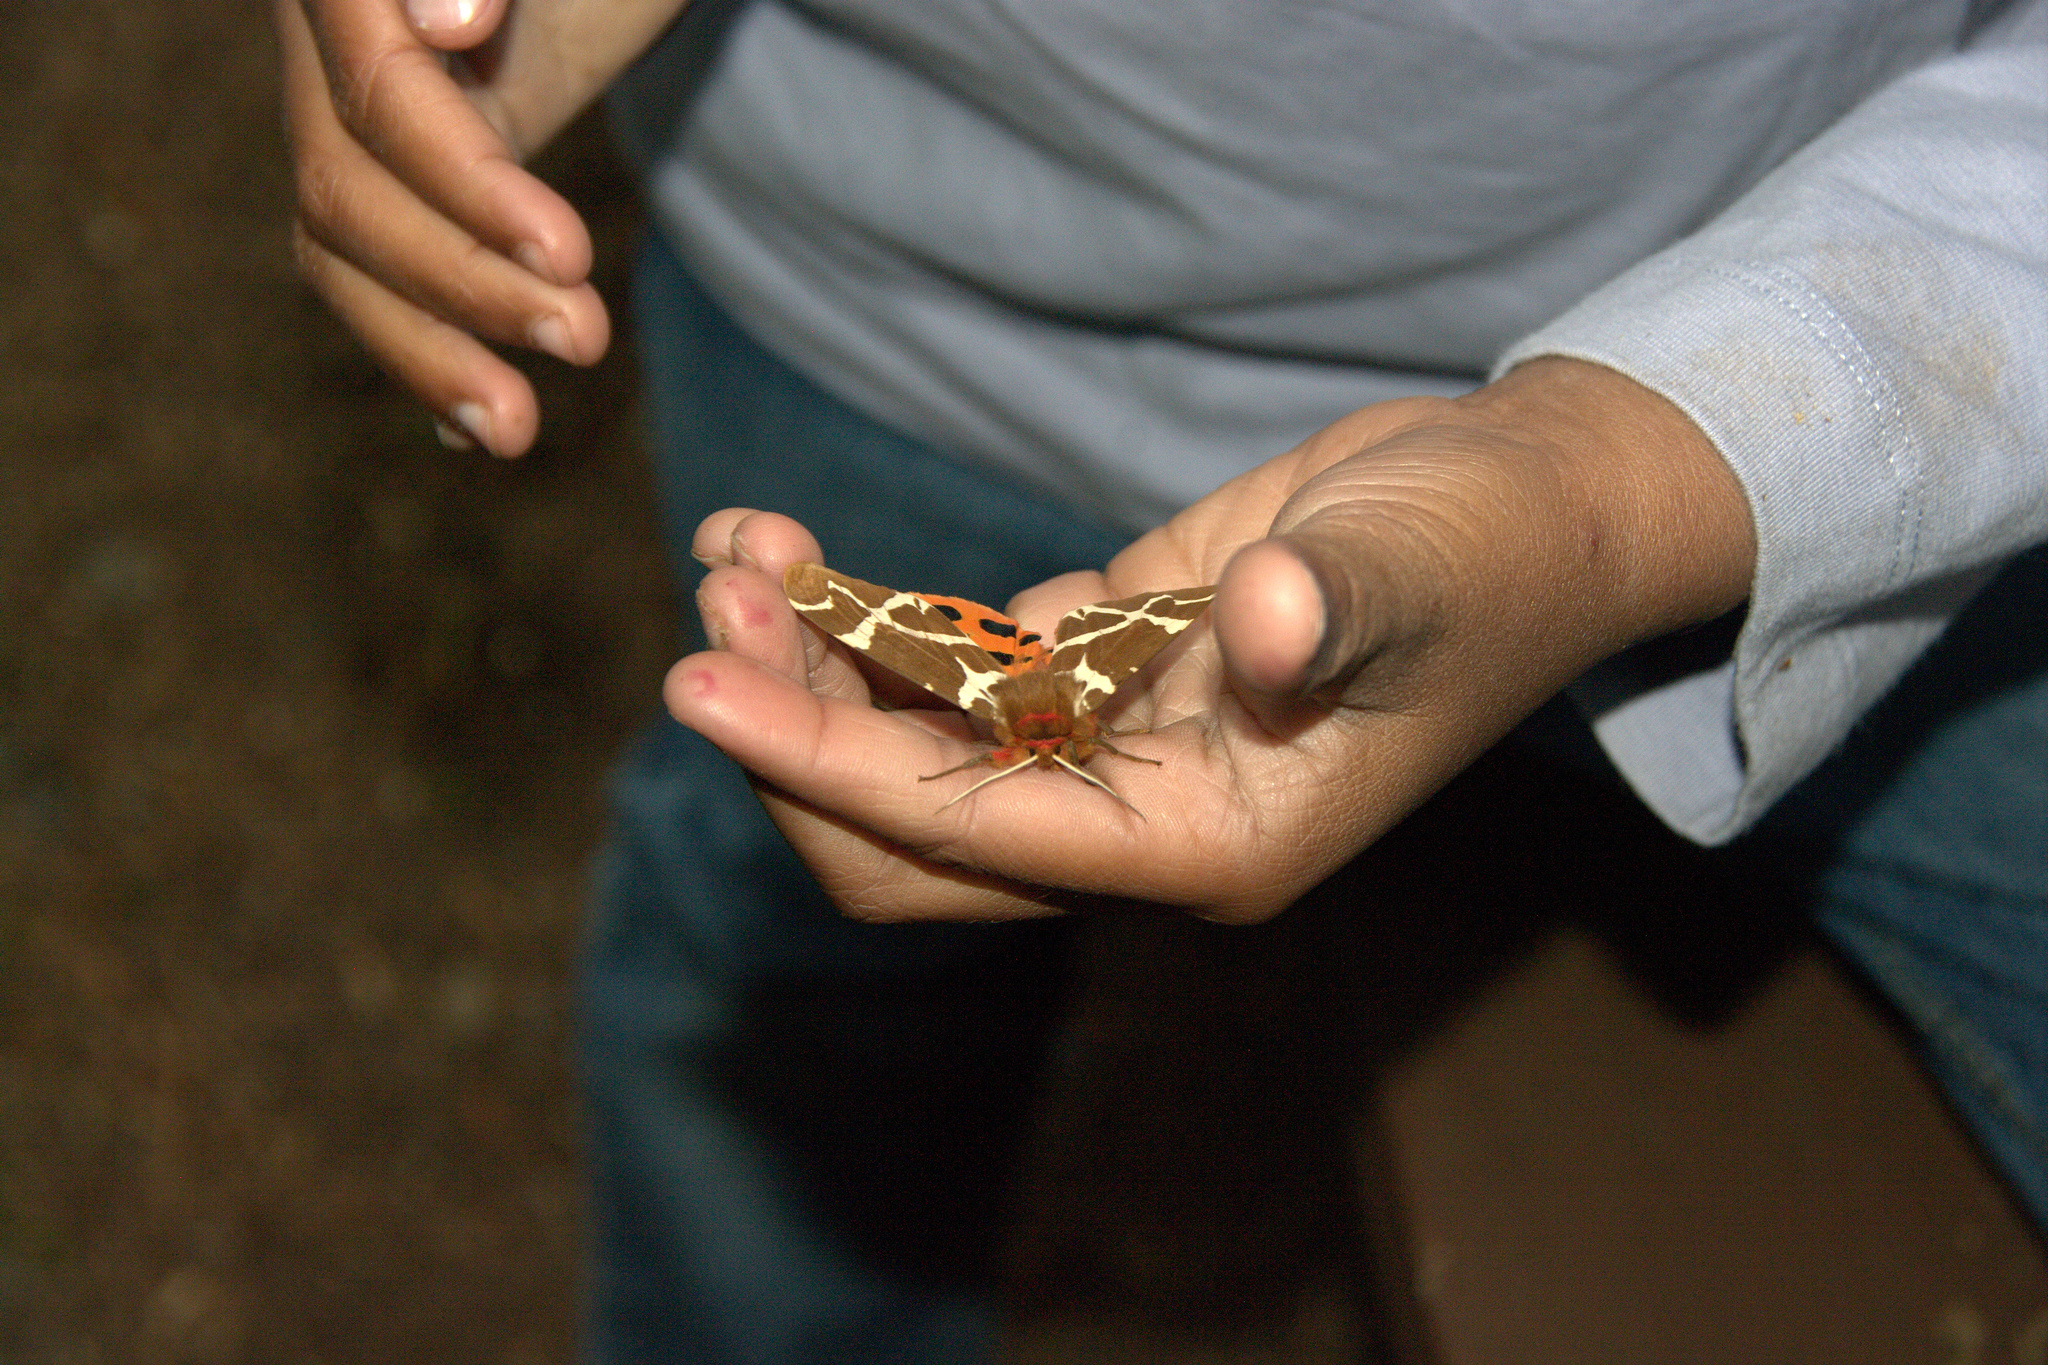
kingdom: Animalia
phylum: Arthropoda
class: Insecta
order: Lepidoptera
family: Erebidae
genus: Arctia
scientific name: Arctia caja
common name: Garden tiger
